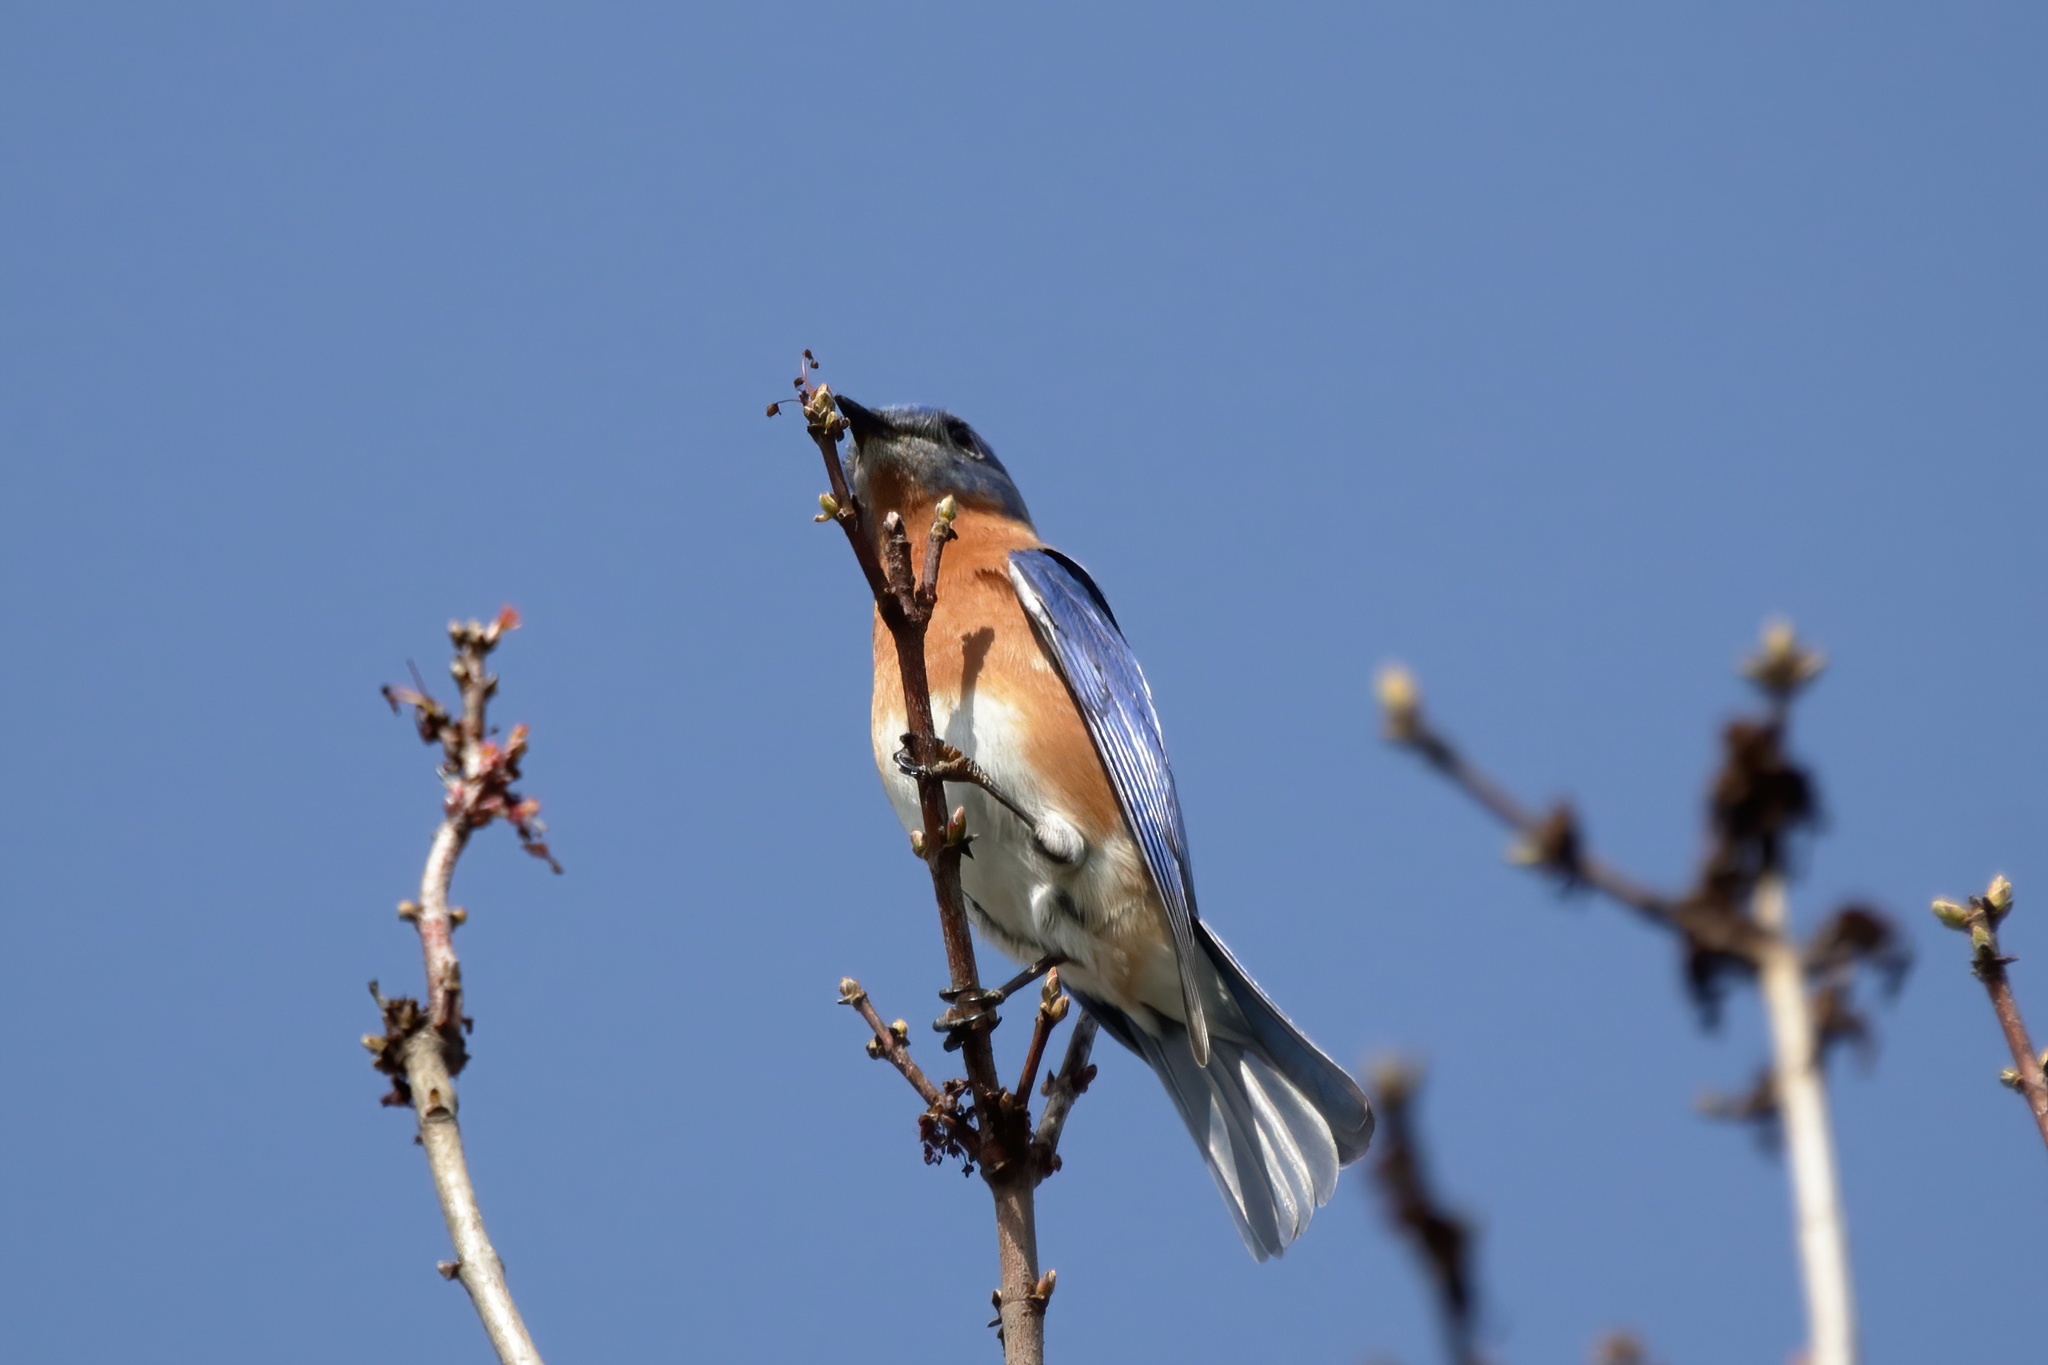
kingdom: Animalia
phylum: Chordata
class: Aves
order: Passeriformes
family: Turdidae
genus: Sialia
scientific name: Sialia sialis
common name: Eastern bluebird
